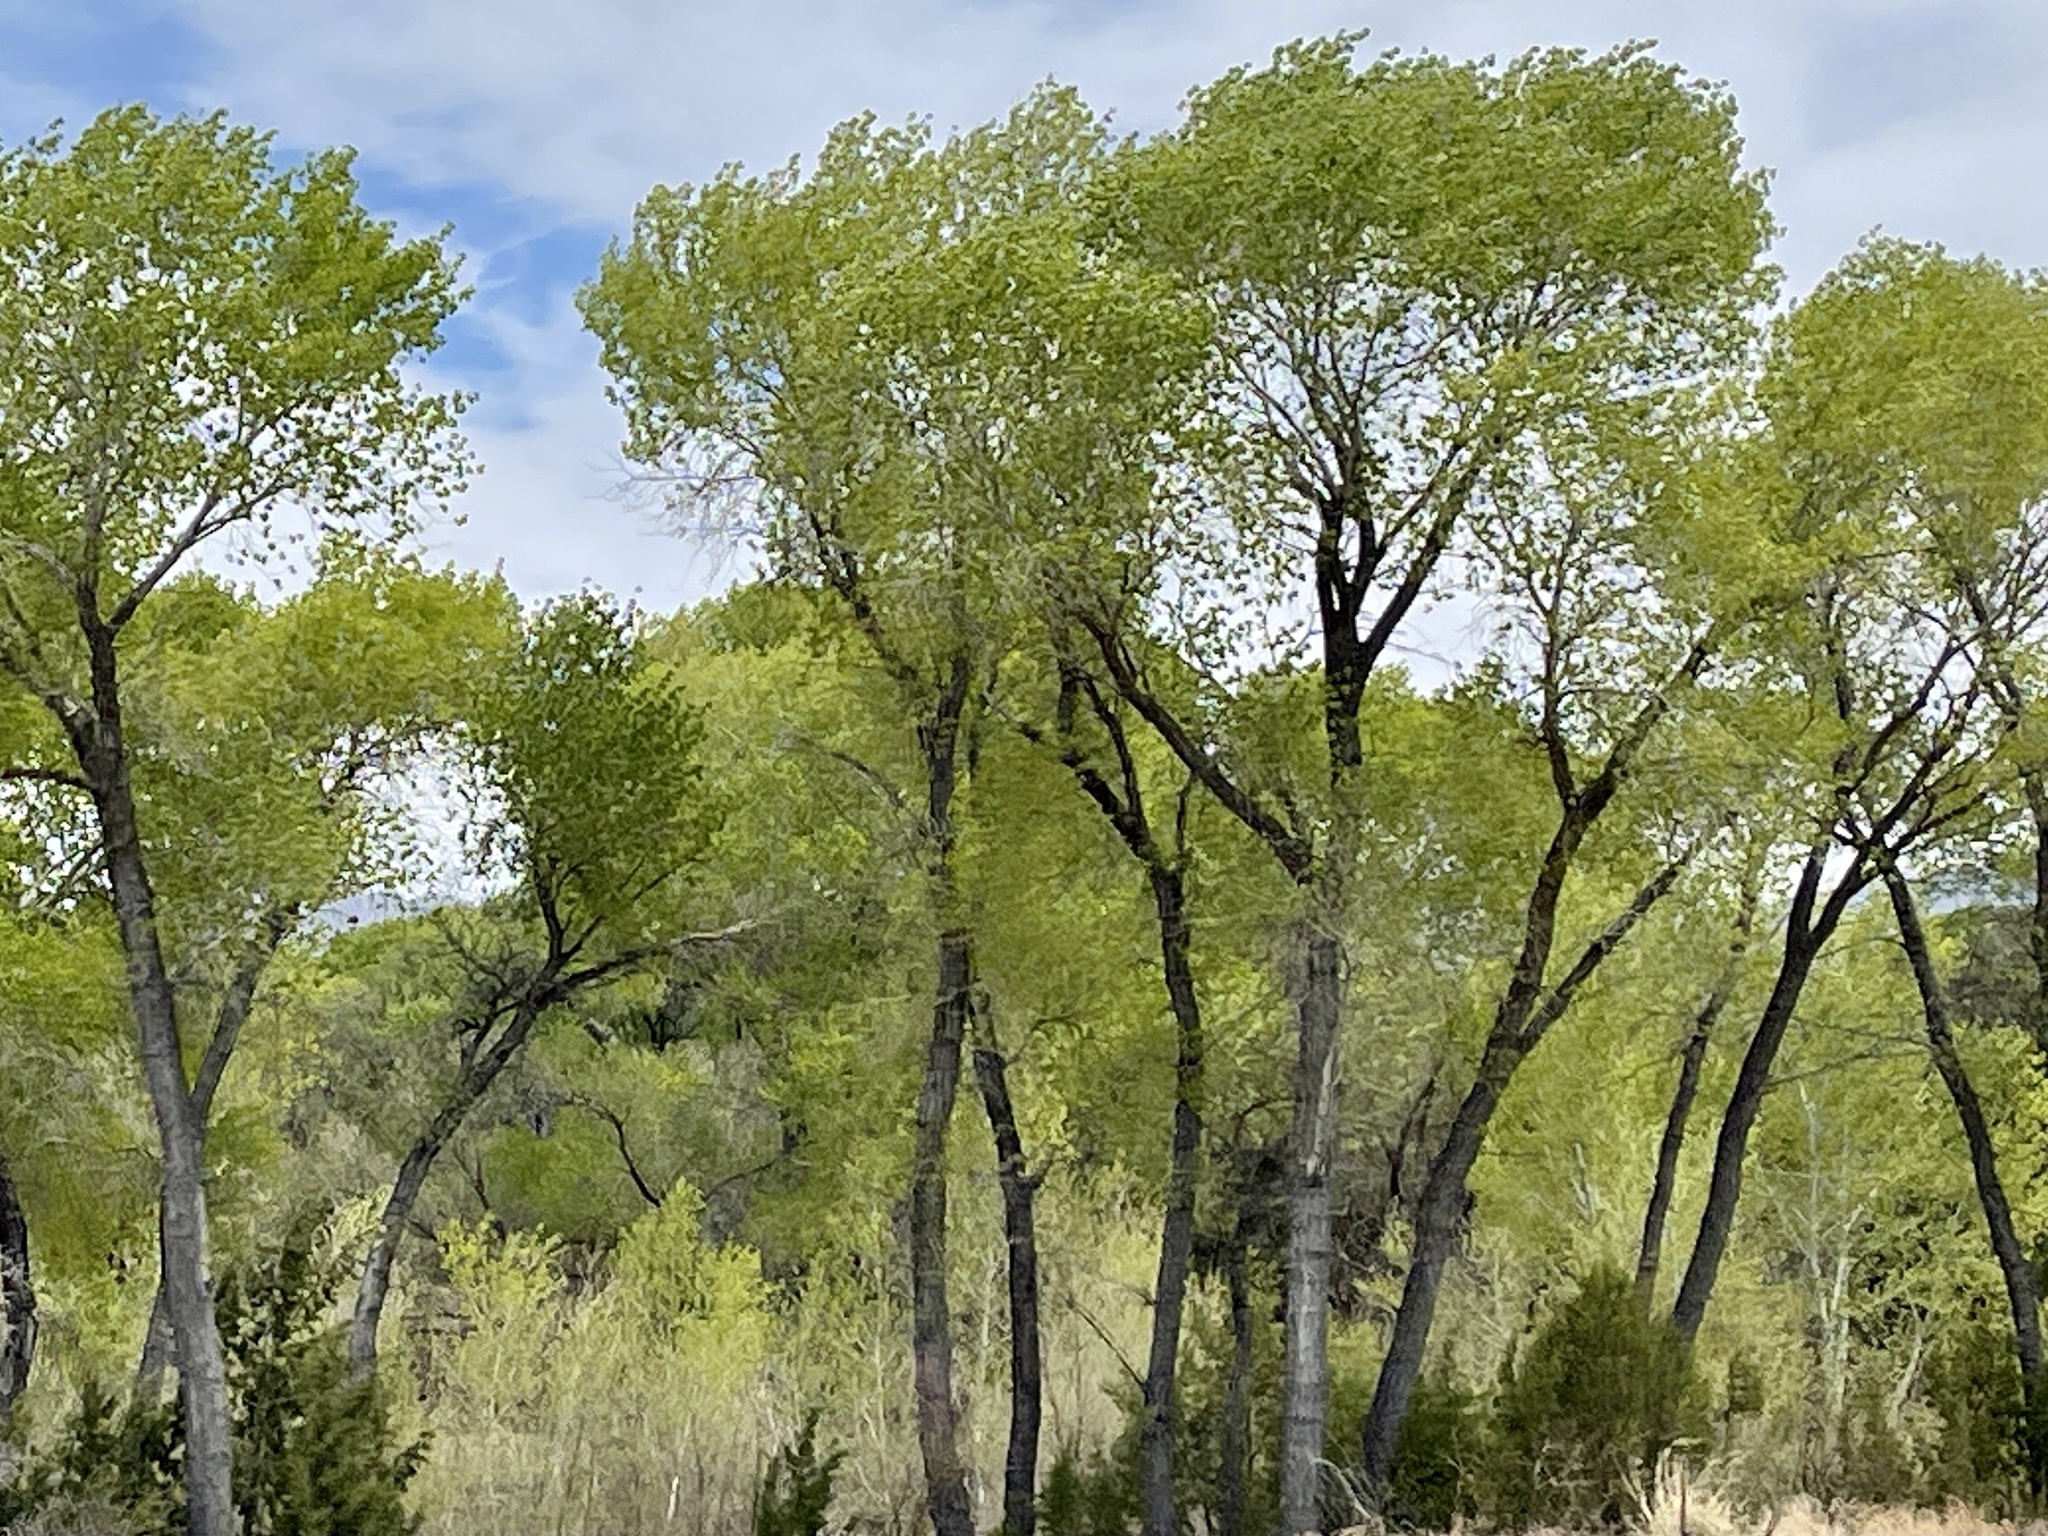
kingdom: Plantae
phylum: Tracheophyta
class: Magnoliopsida
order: Malpighiales
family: Salicaceae
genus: Populus
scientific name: Populus fremontii
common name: Fremont's cottonwood
